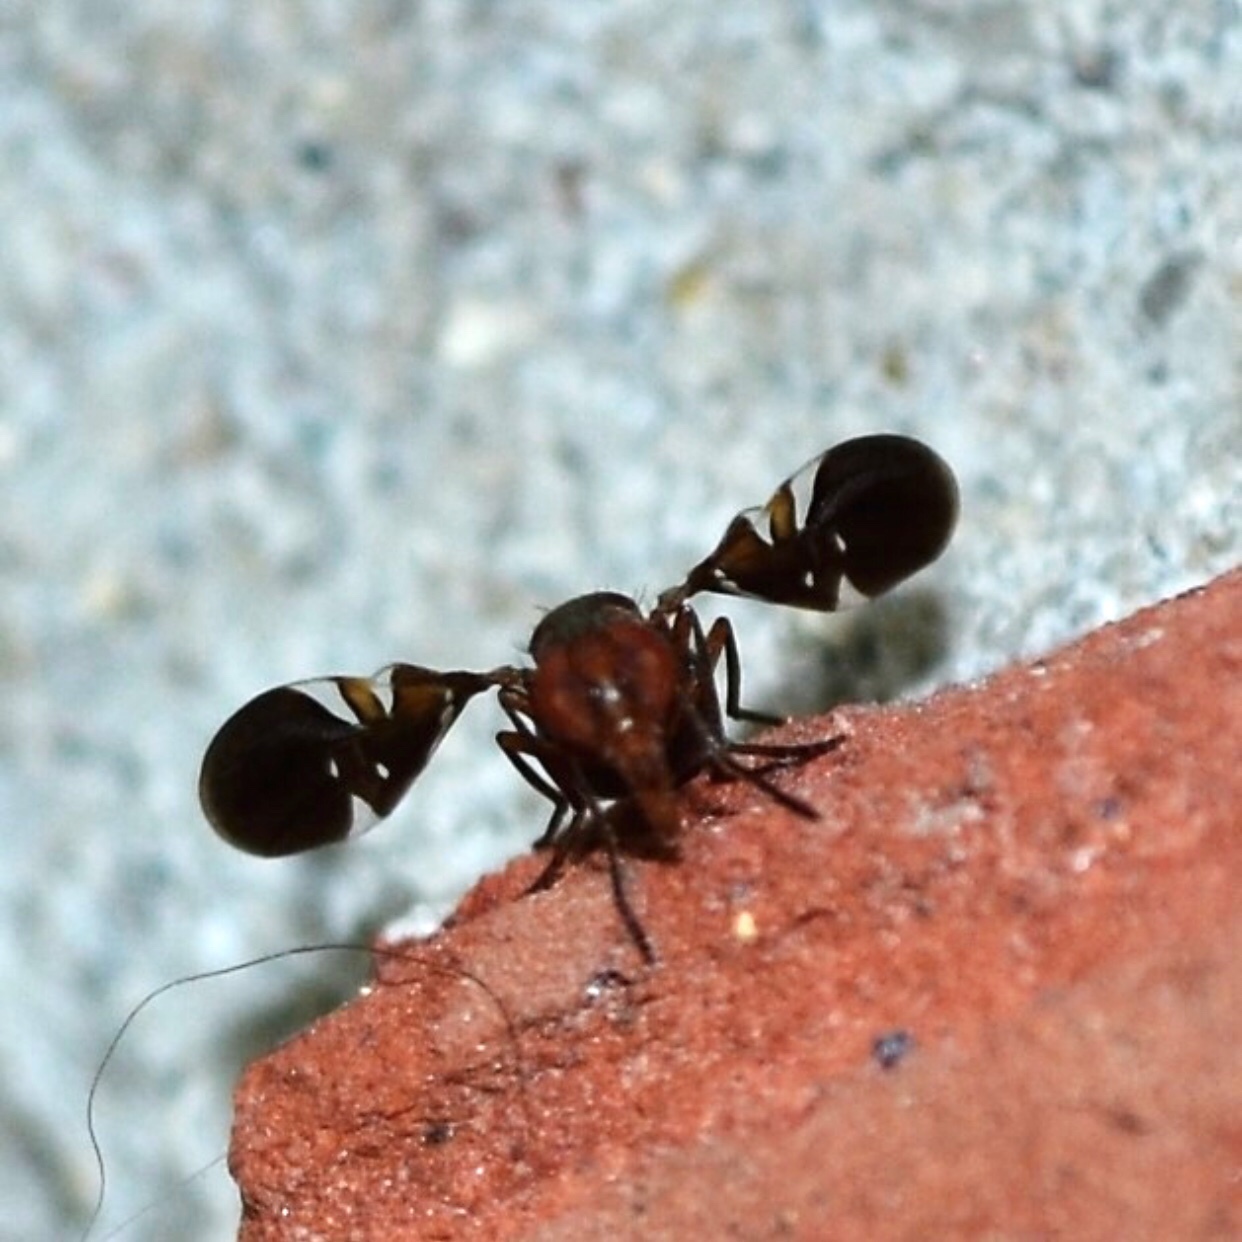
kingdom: Animalia
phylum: Arthropoda
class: Insecta
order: Diptera
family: Ulidiidae
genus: Delphinia
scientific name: Delphinia picta
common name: Common picture-winged fly
